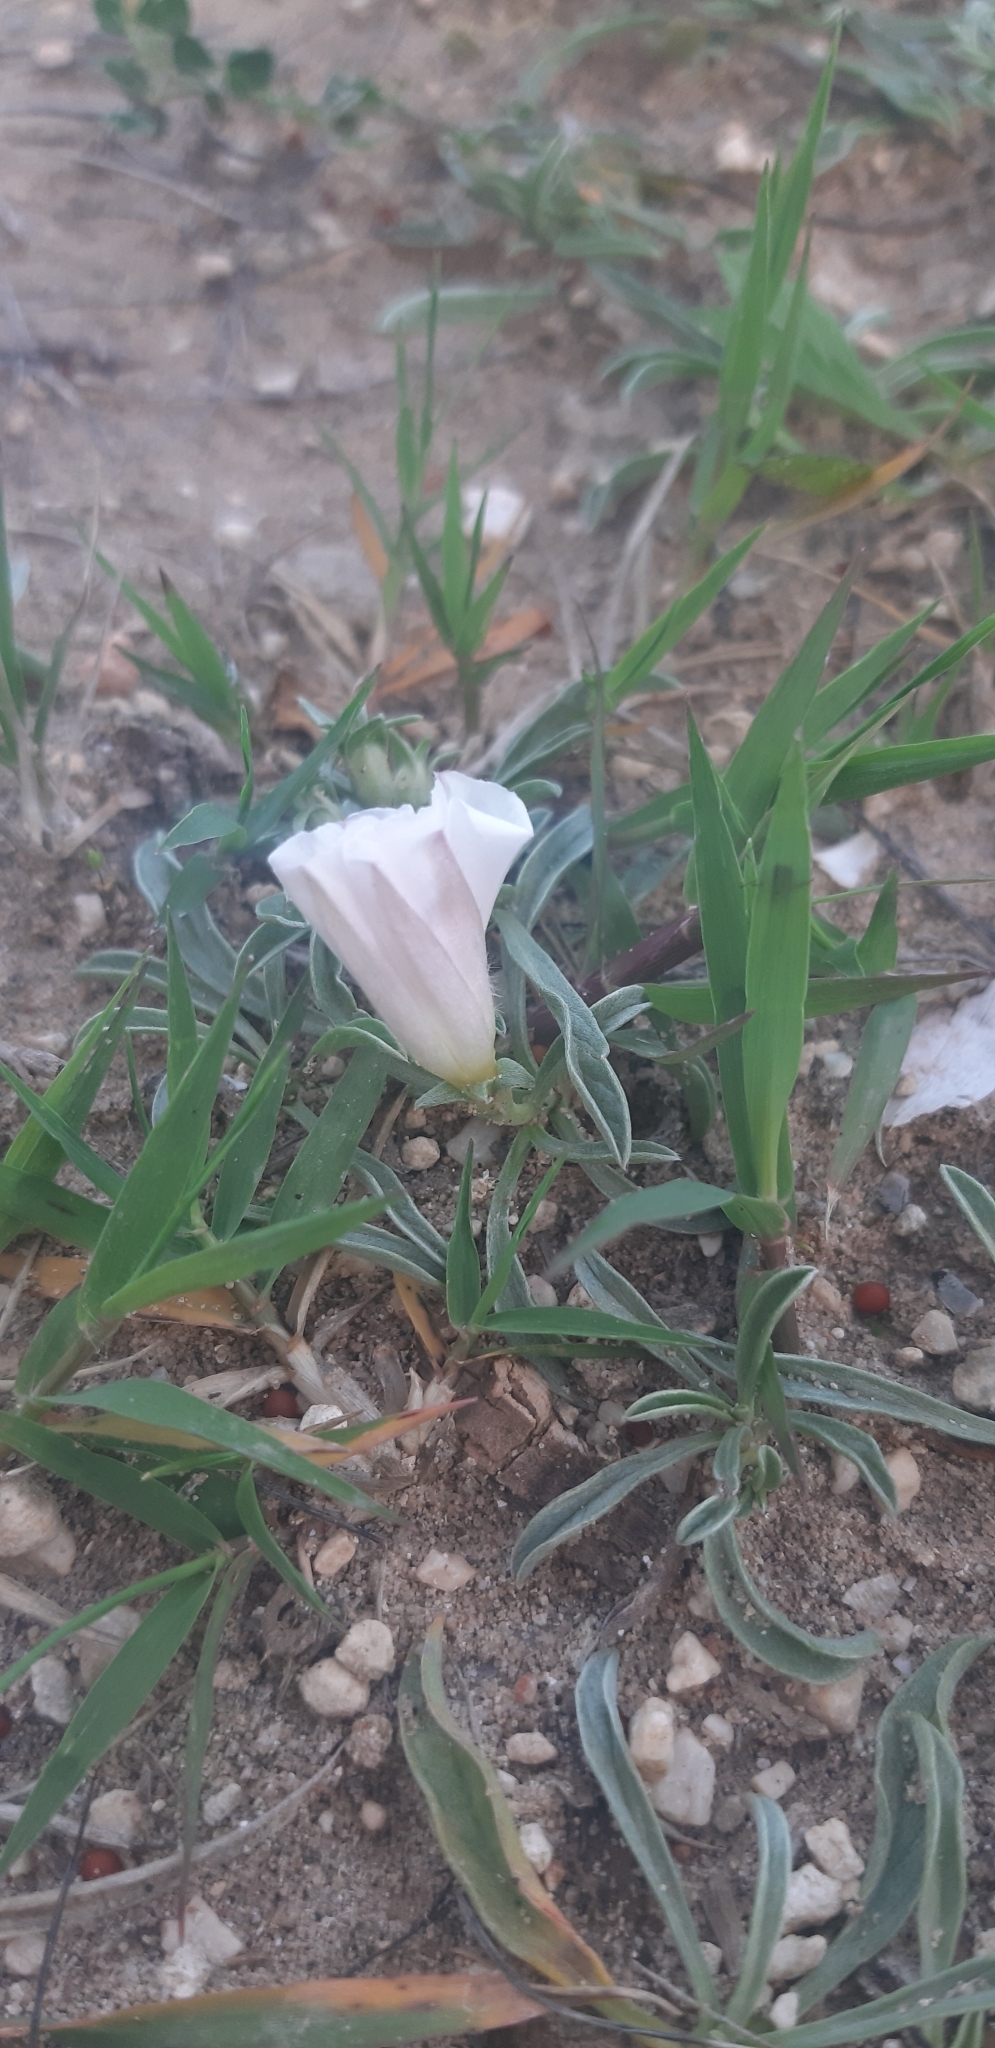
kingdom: Plantae
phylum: Tracheophyta
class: Magnoliopsida
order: Solanales
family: Convolvulaceae
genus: Convolvulus
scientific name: Convolvulus lineatus
